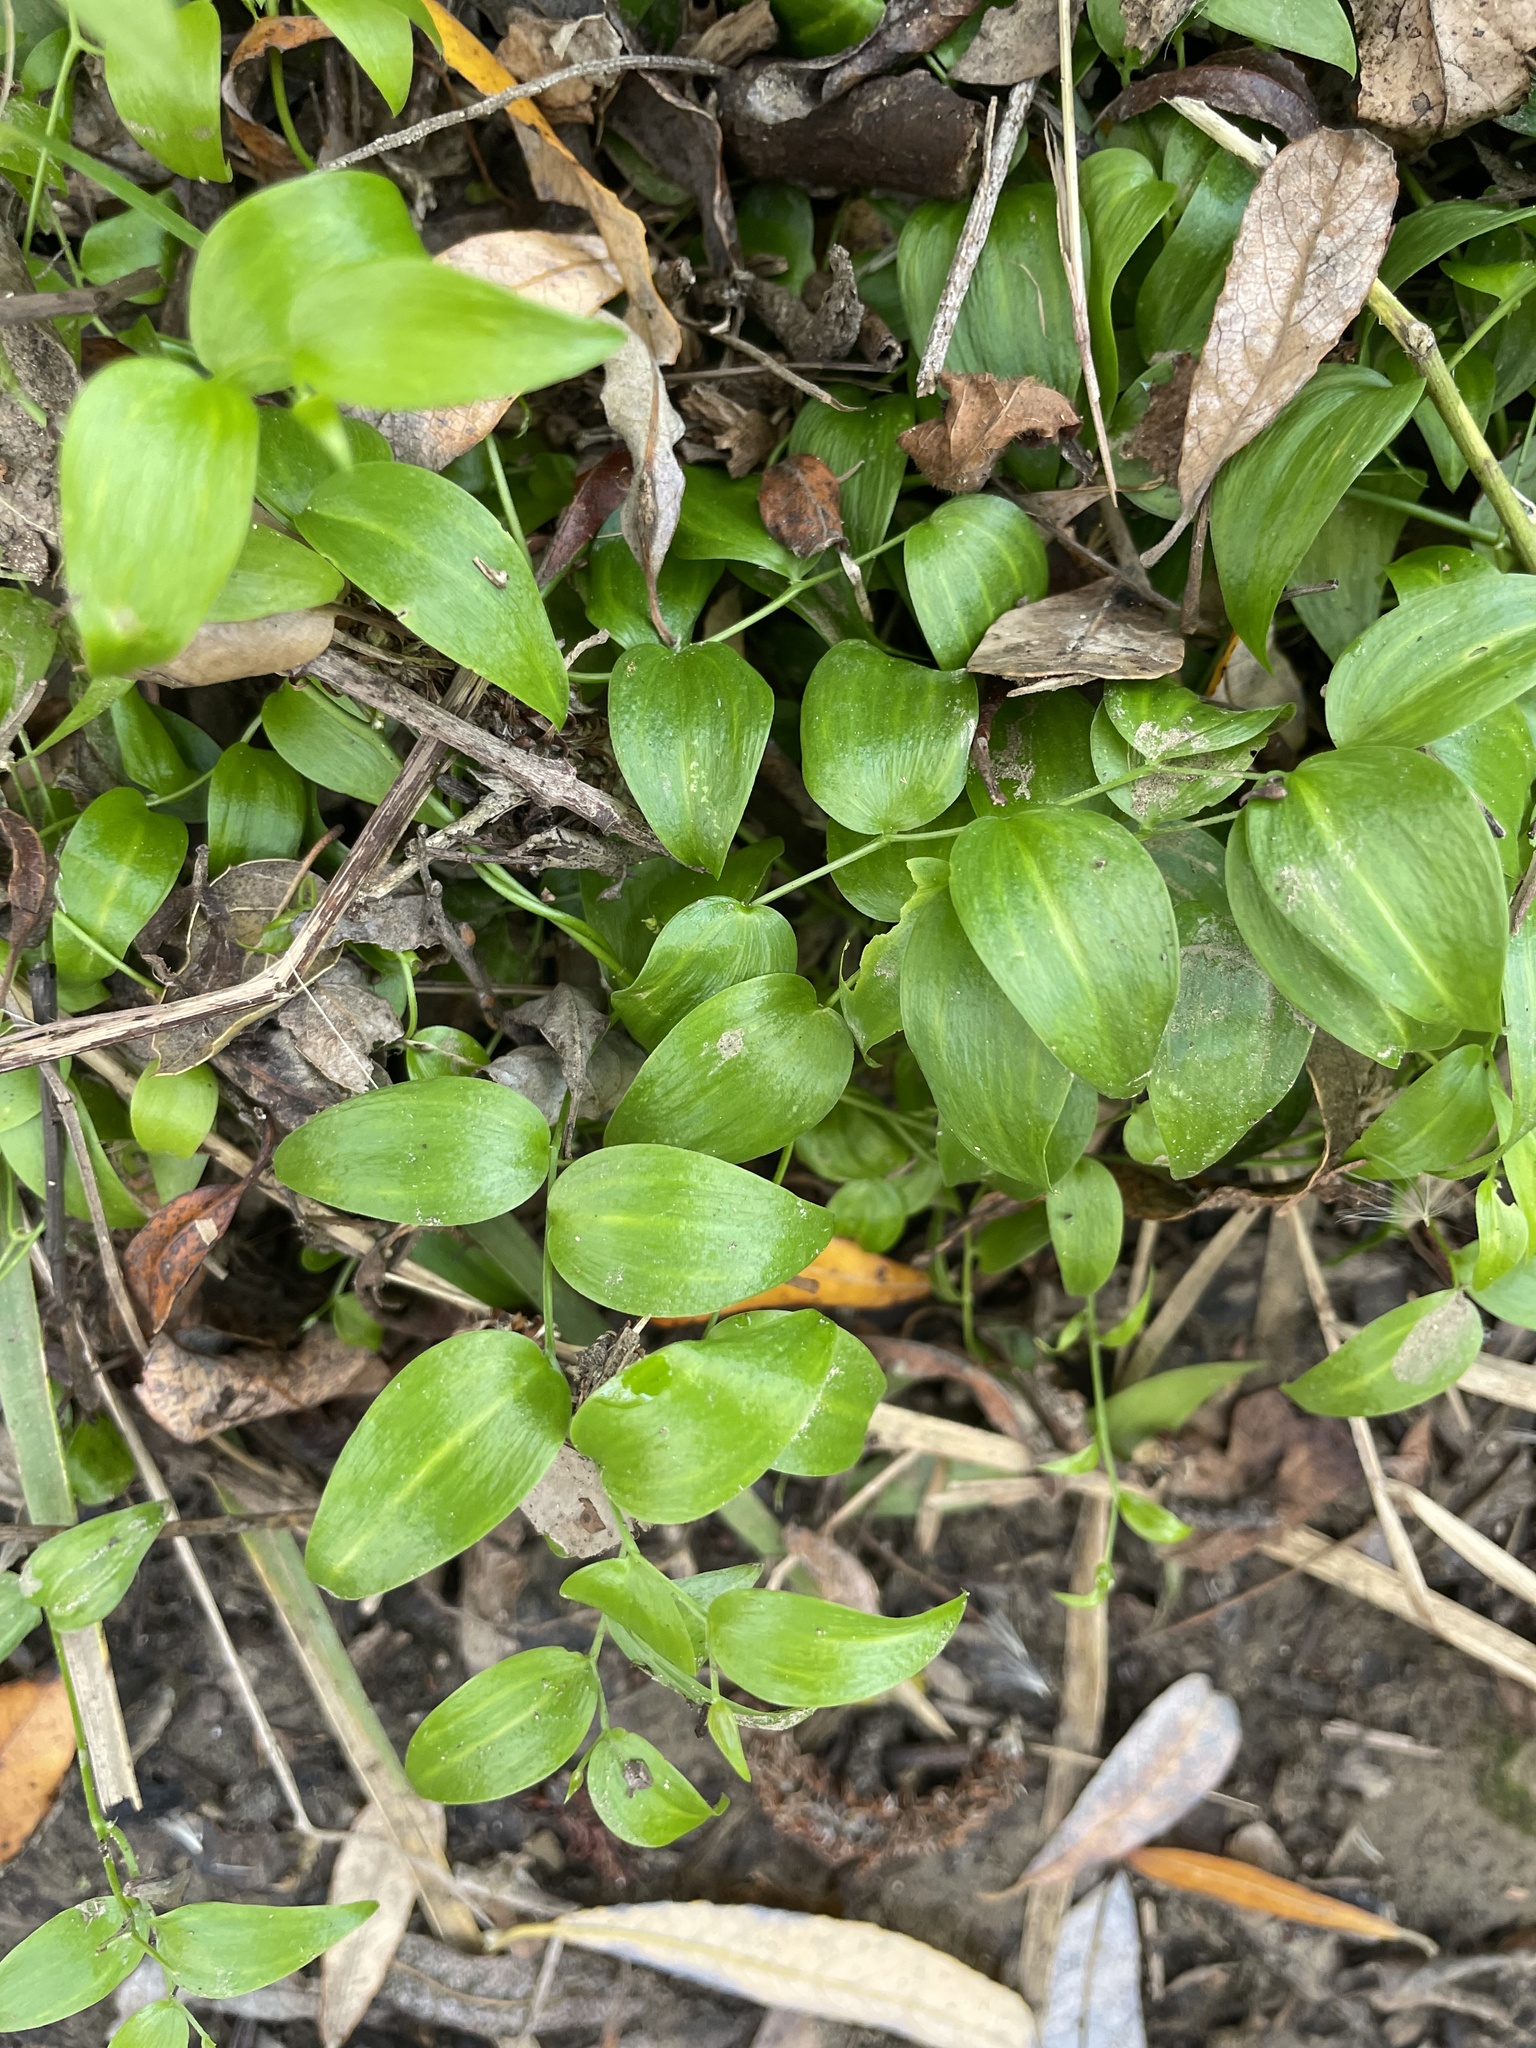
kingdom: Plantae
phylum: Tracheophyta
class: Liliopsida
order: Asparagales
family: Asparagaceae
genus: Asparagus
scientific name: Asparagus asparagoides
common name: African asparagus fern
